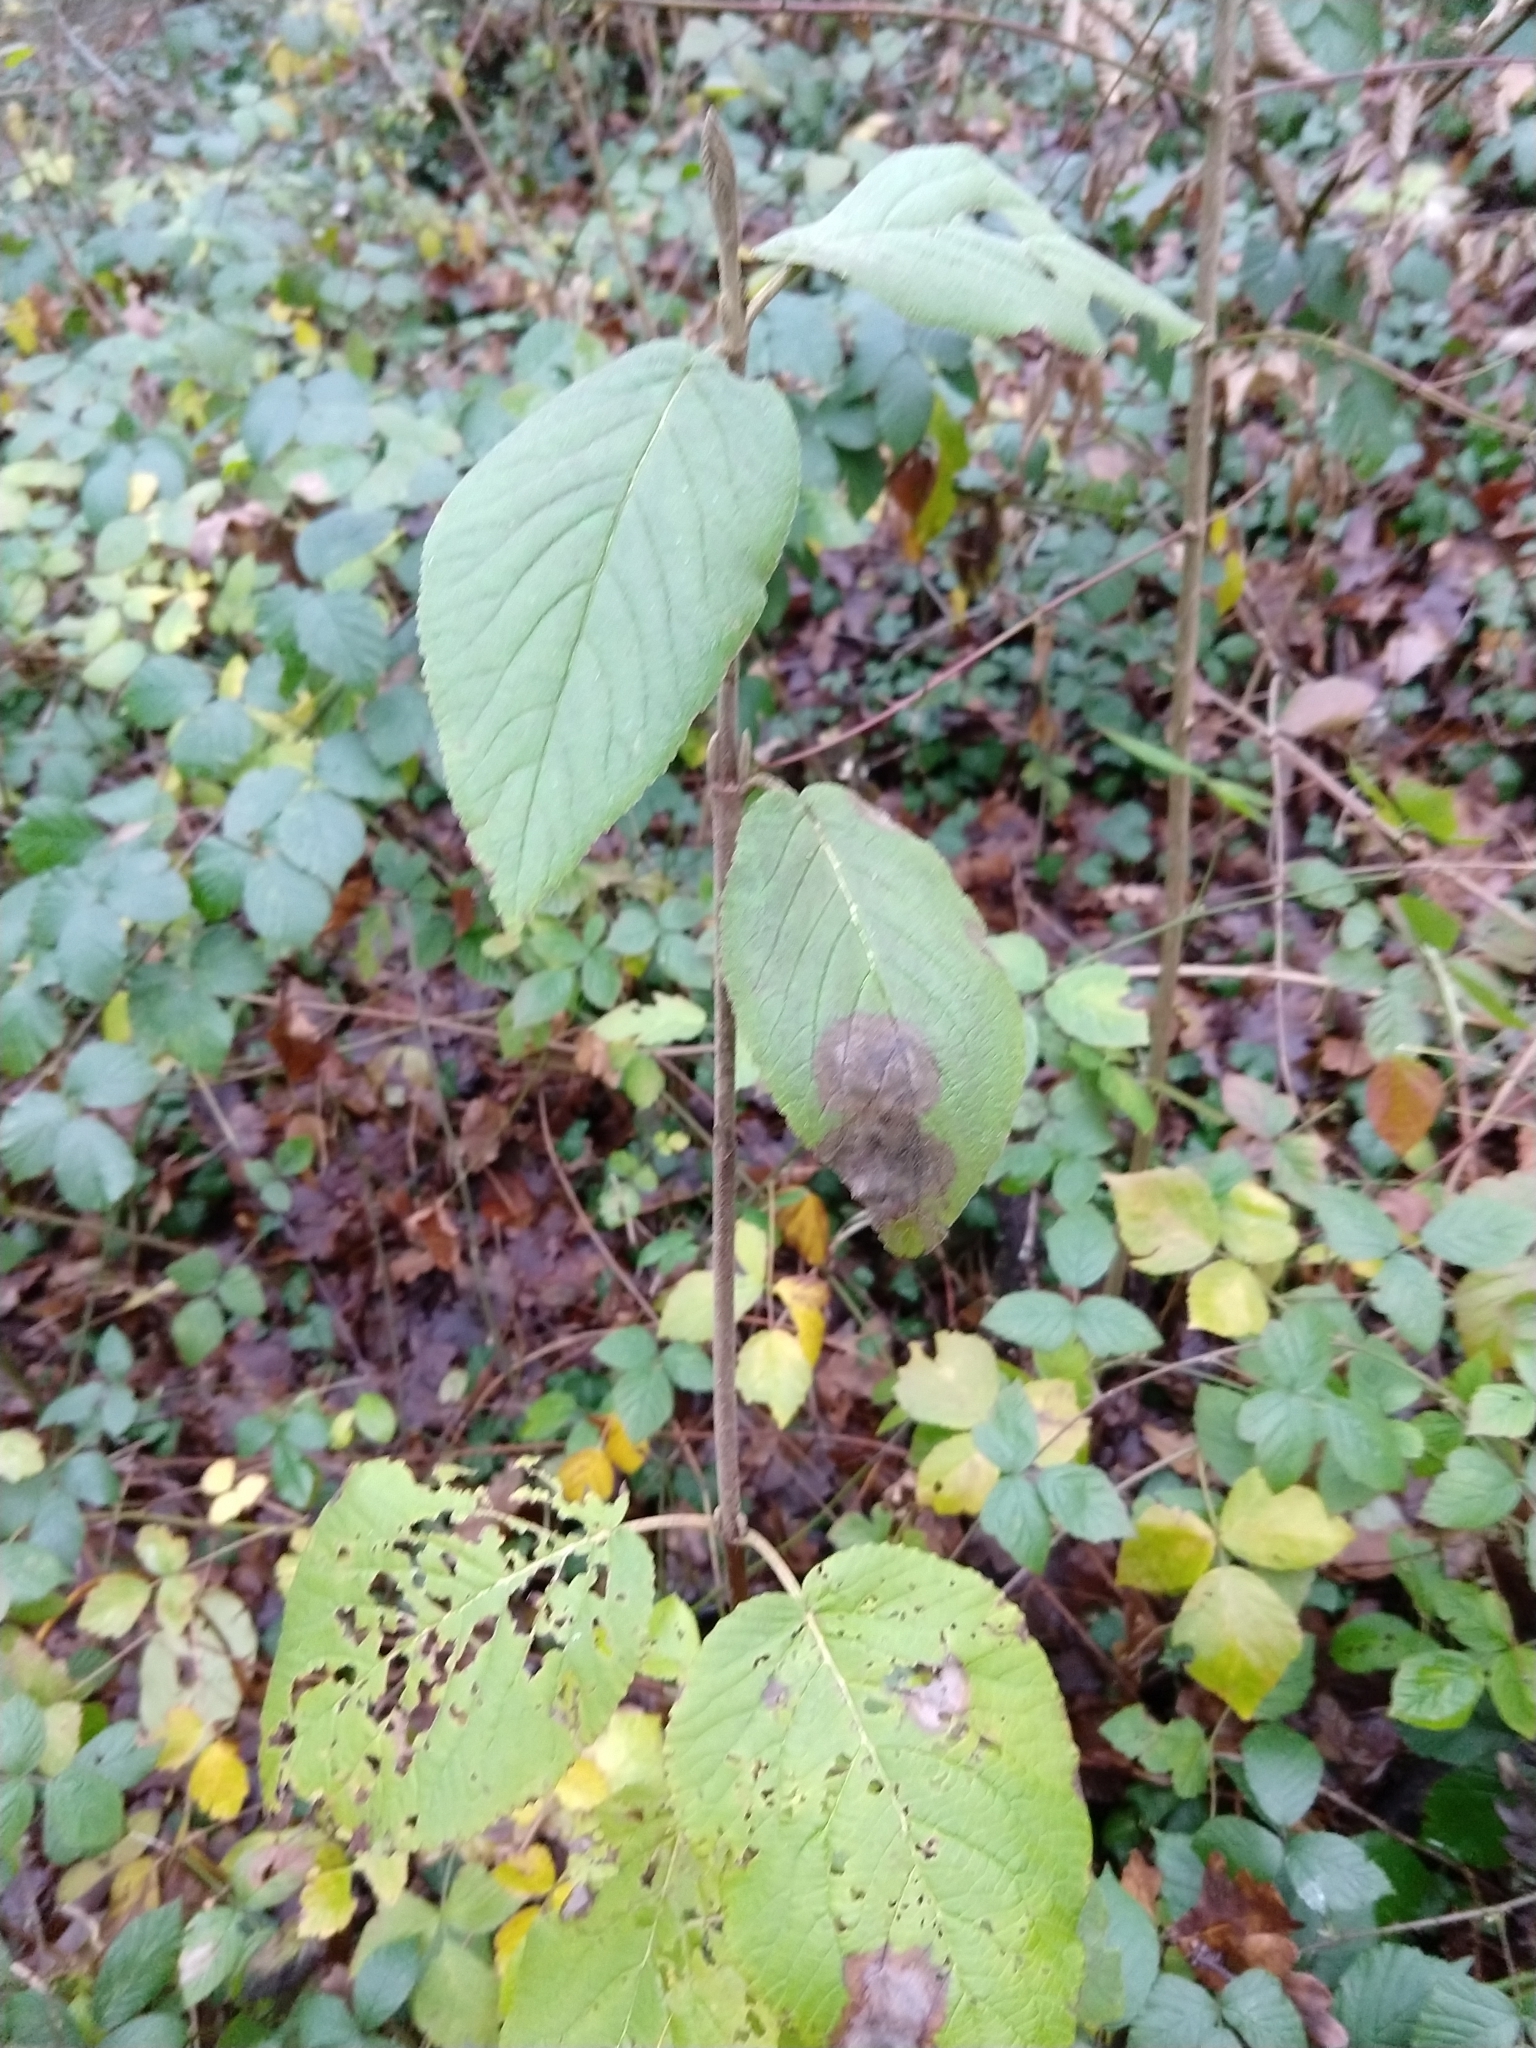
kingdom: Plantae
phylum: Tracheophyta
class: Magnoliopsida
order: Dipsacales
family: Viburnaceae
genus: Viburnum
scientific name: Viburnum lantana
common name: Wayfaring tree
